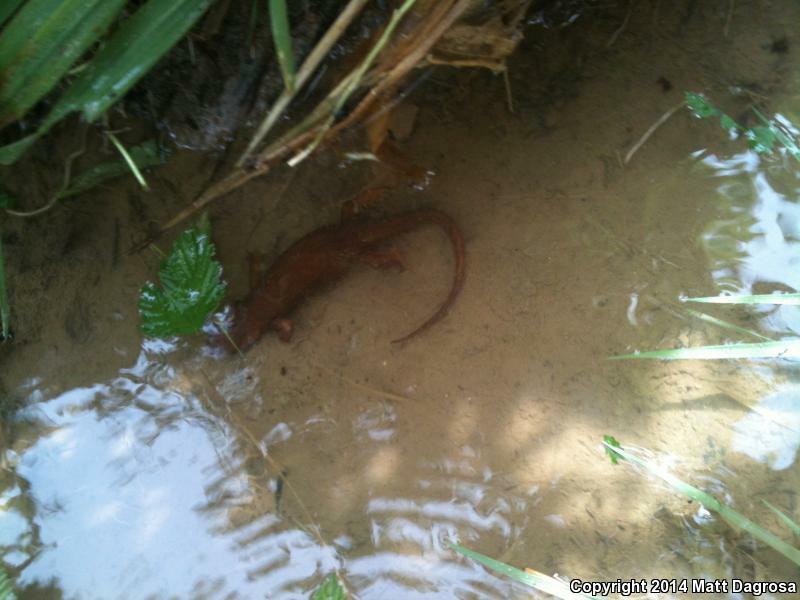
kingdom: Animalia
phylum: Chordata
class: Amphibia
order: Caudata
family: Salamandridae
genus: Taricha
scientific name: Taricha granulosa
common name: Roughskin newt
